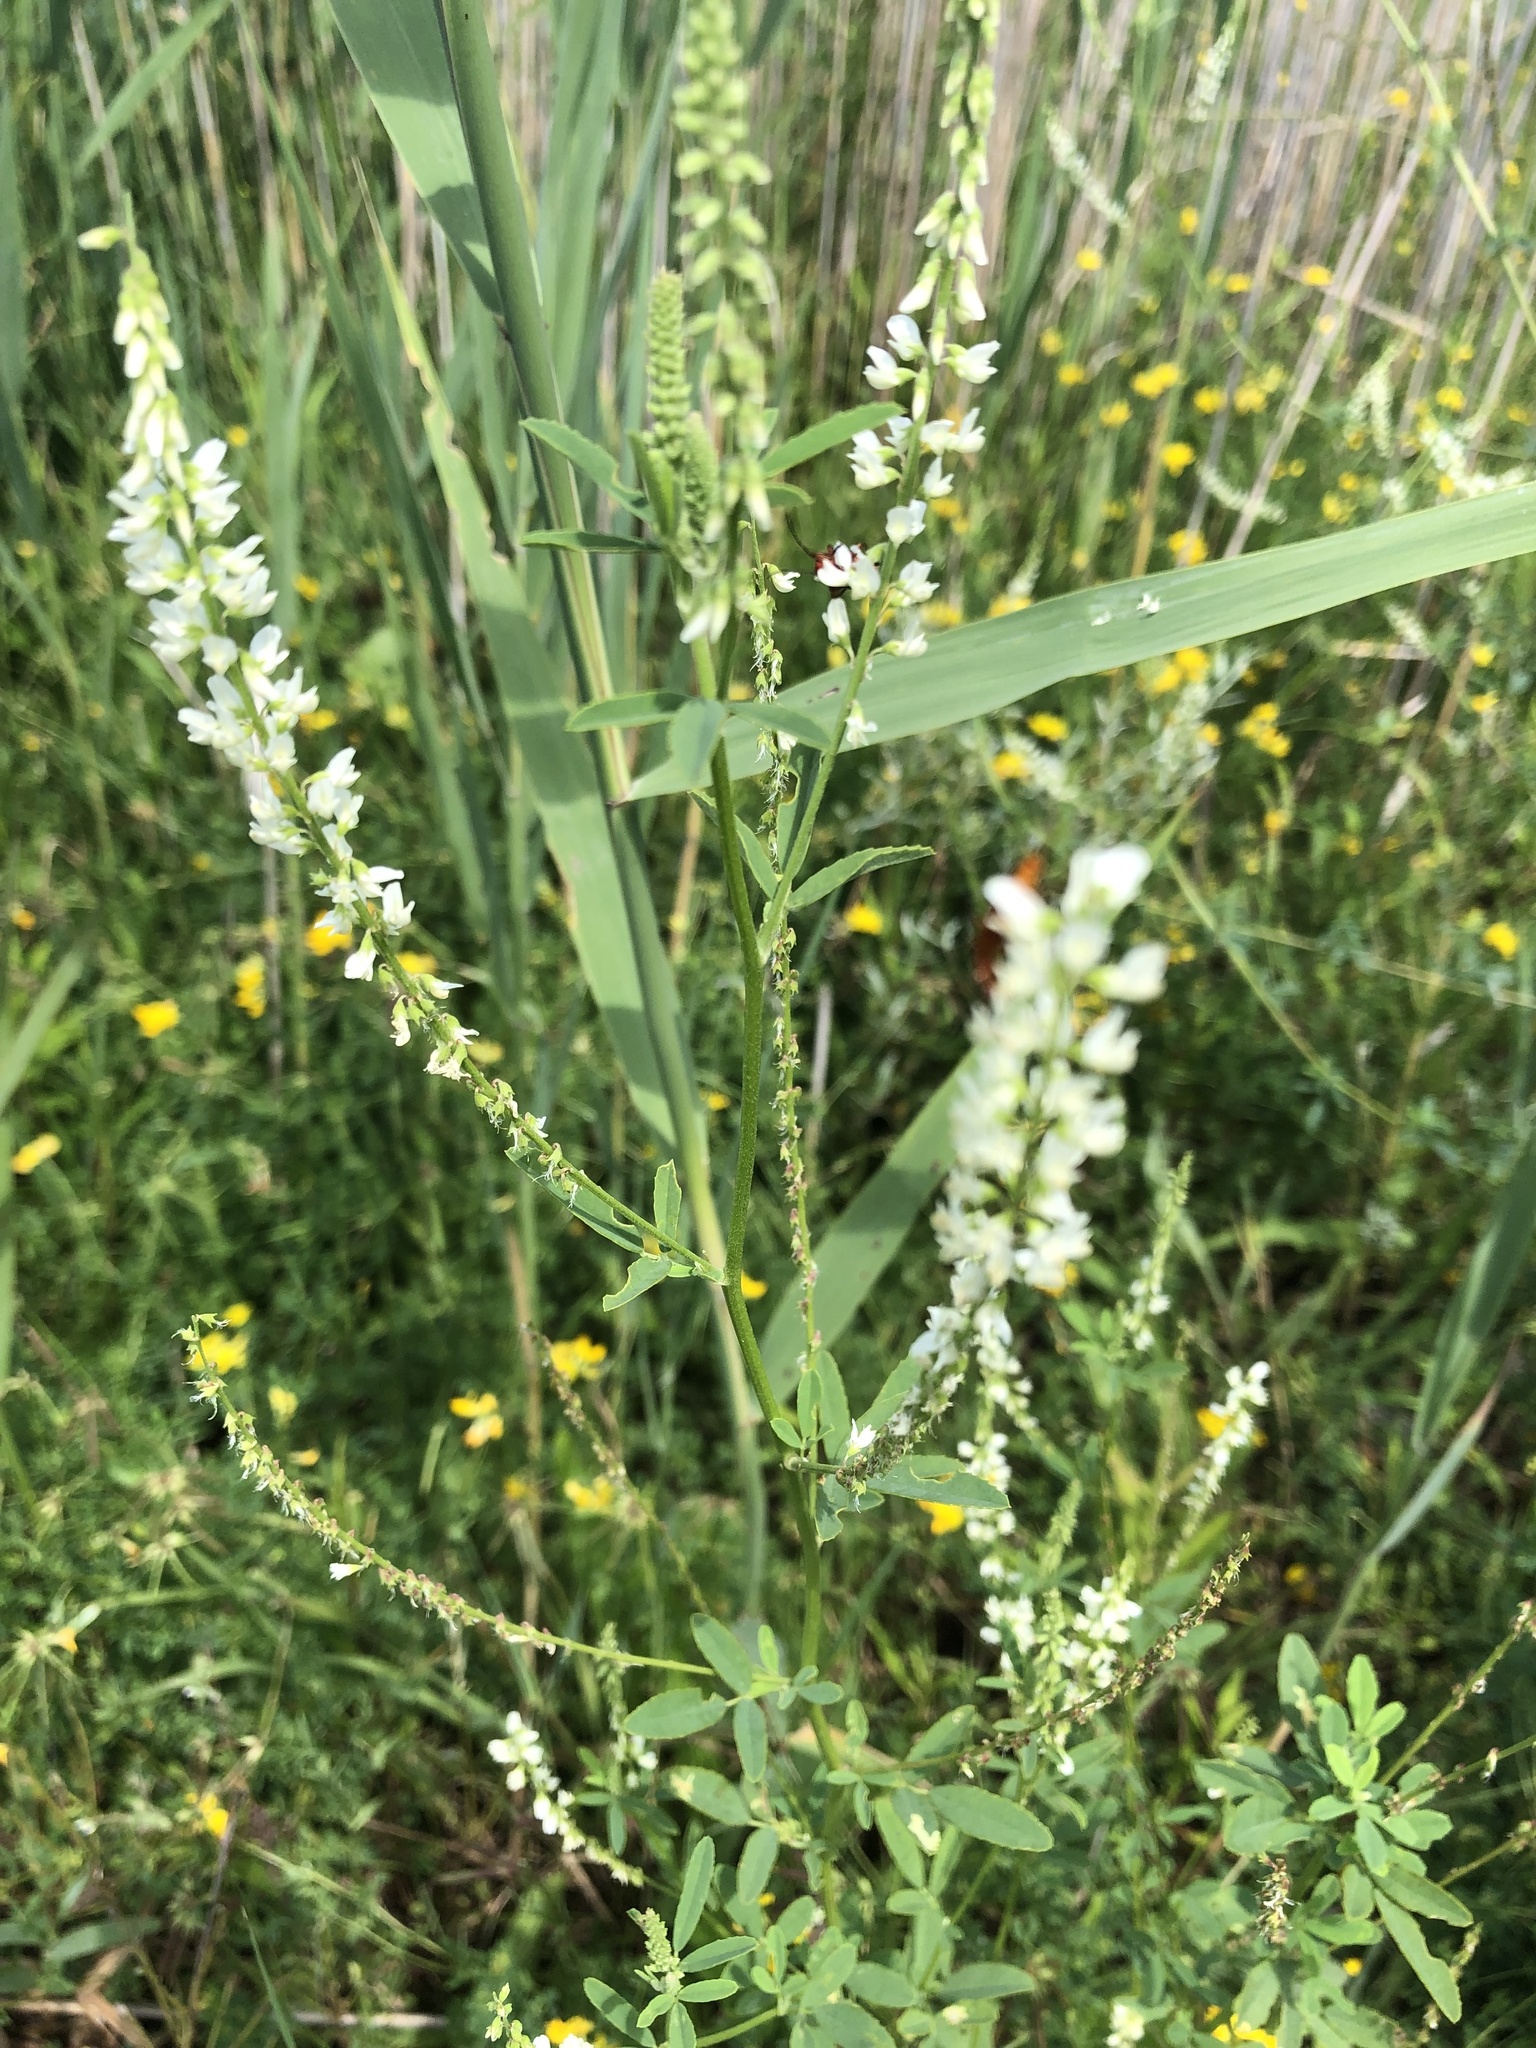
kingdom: Plantae
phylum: Tracheophyta
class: Magnoliopsida
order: Fabales
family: Fabaceae
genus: Melilotus
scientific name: Melilotus albus
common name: White melilot
